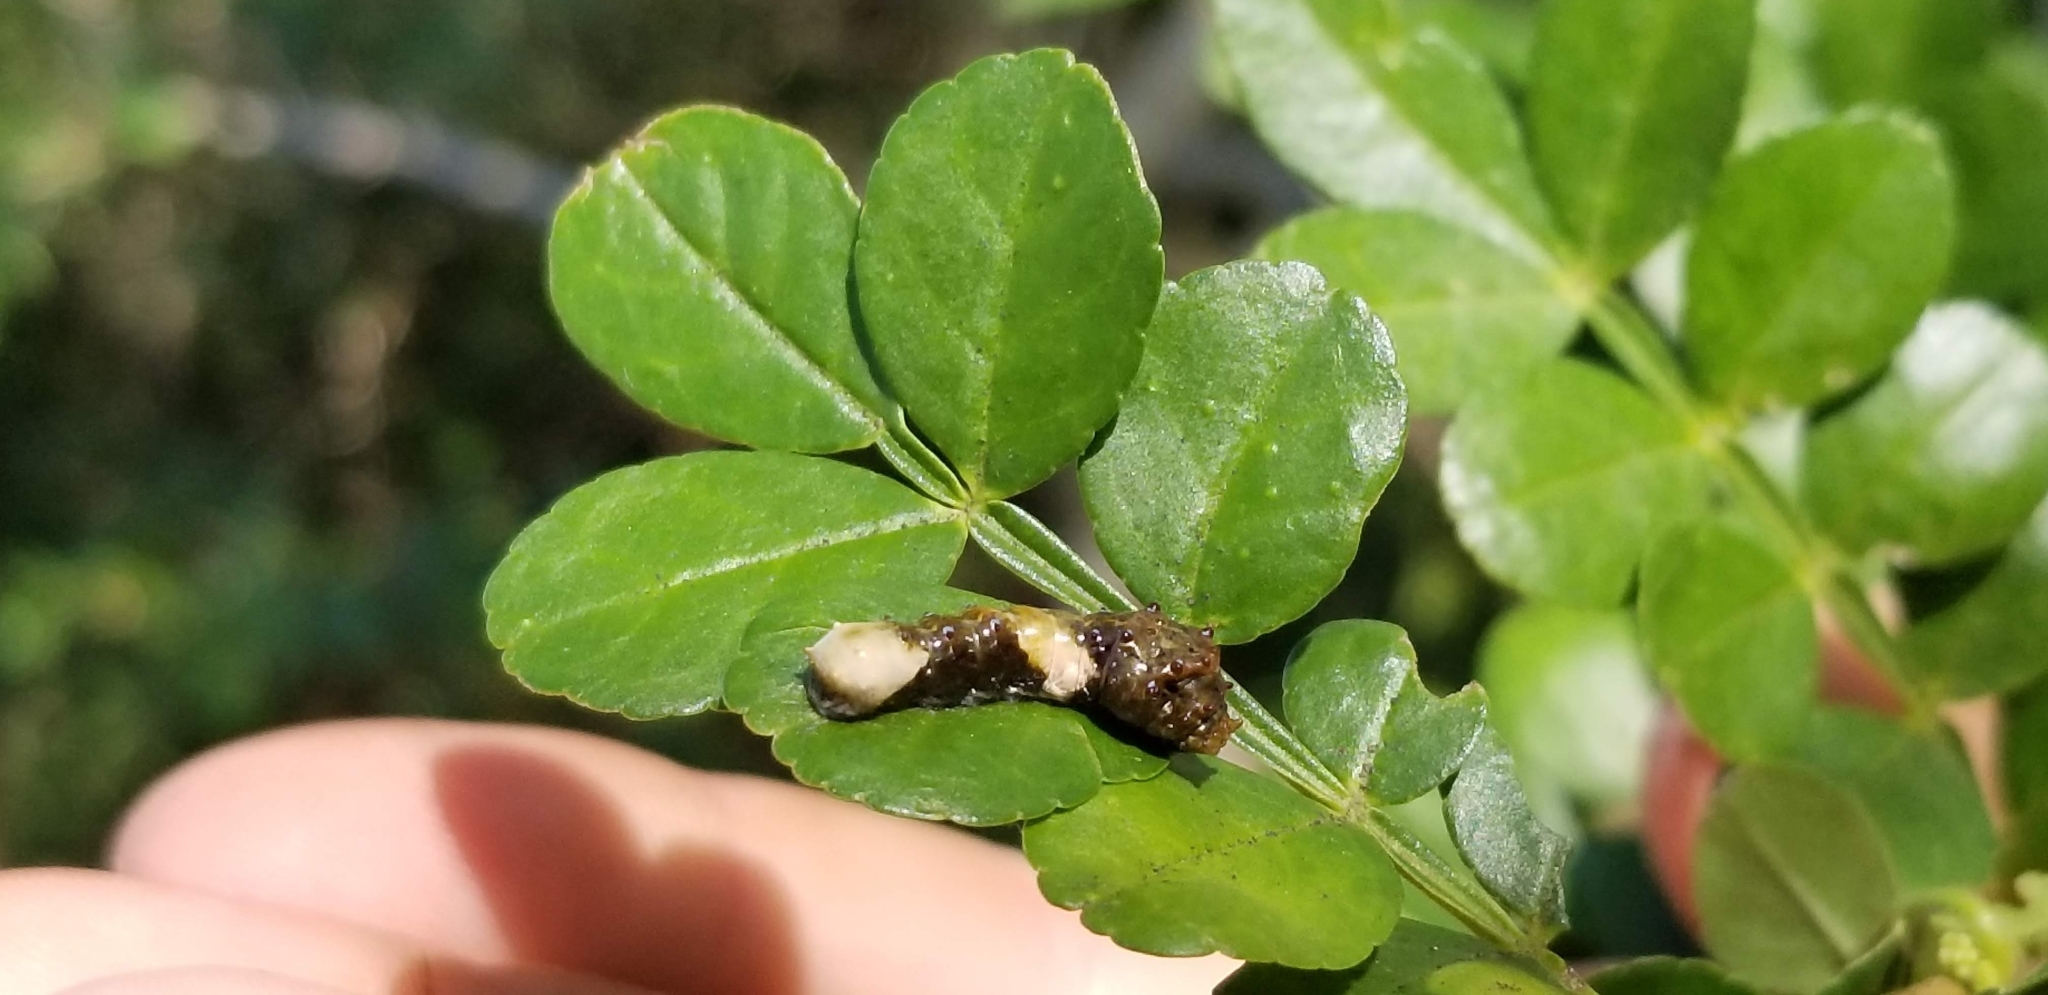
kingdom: Animalia
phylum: Arthropoda
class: Insecta
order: Lepidoptera
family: Papilionidae
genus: Papilio
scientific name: Papilio cresphontes
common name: Giant swallowtail
